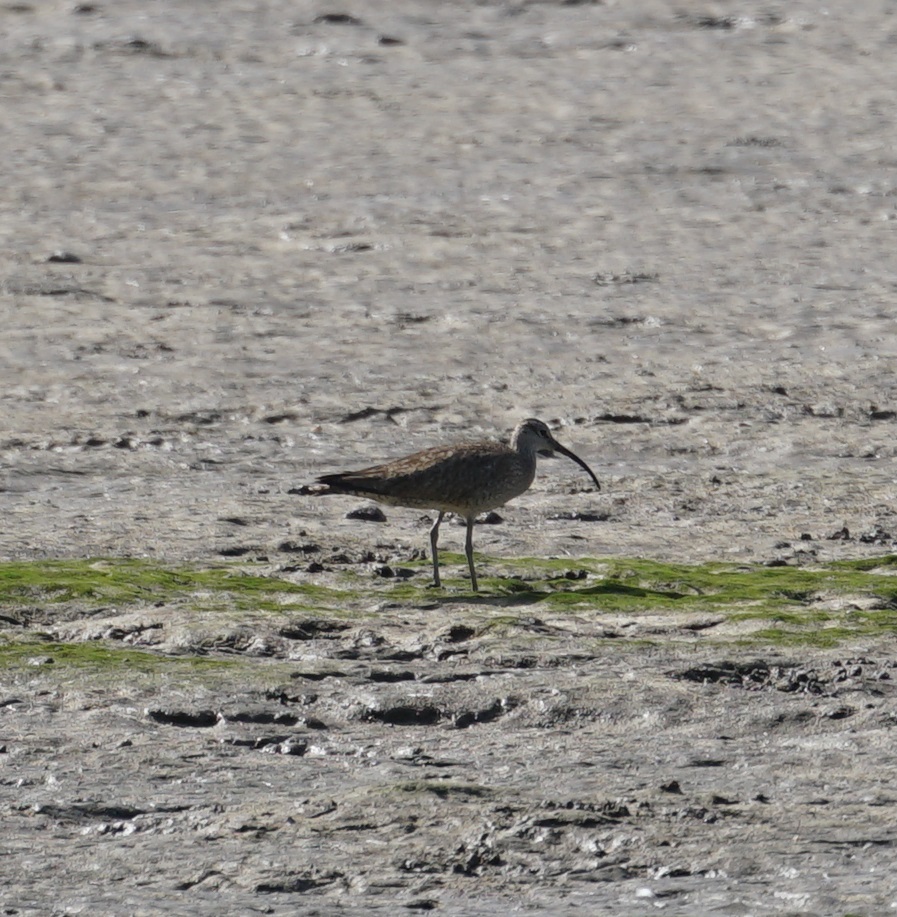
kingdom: Animalia
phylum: Chordata
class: Aves
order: Charadriiformes
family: Scolopacidae
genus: Numenius
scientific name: Numenius phaeopus
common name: Whimbrel
